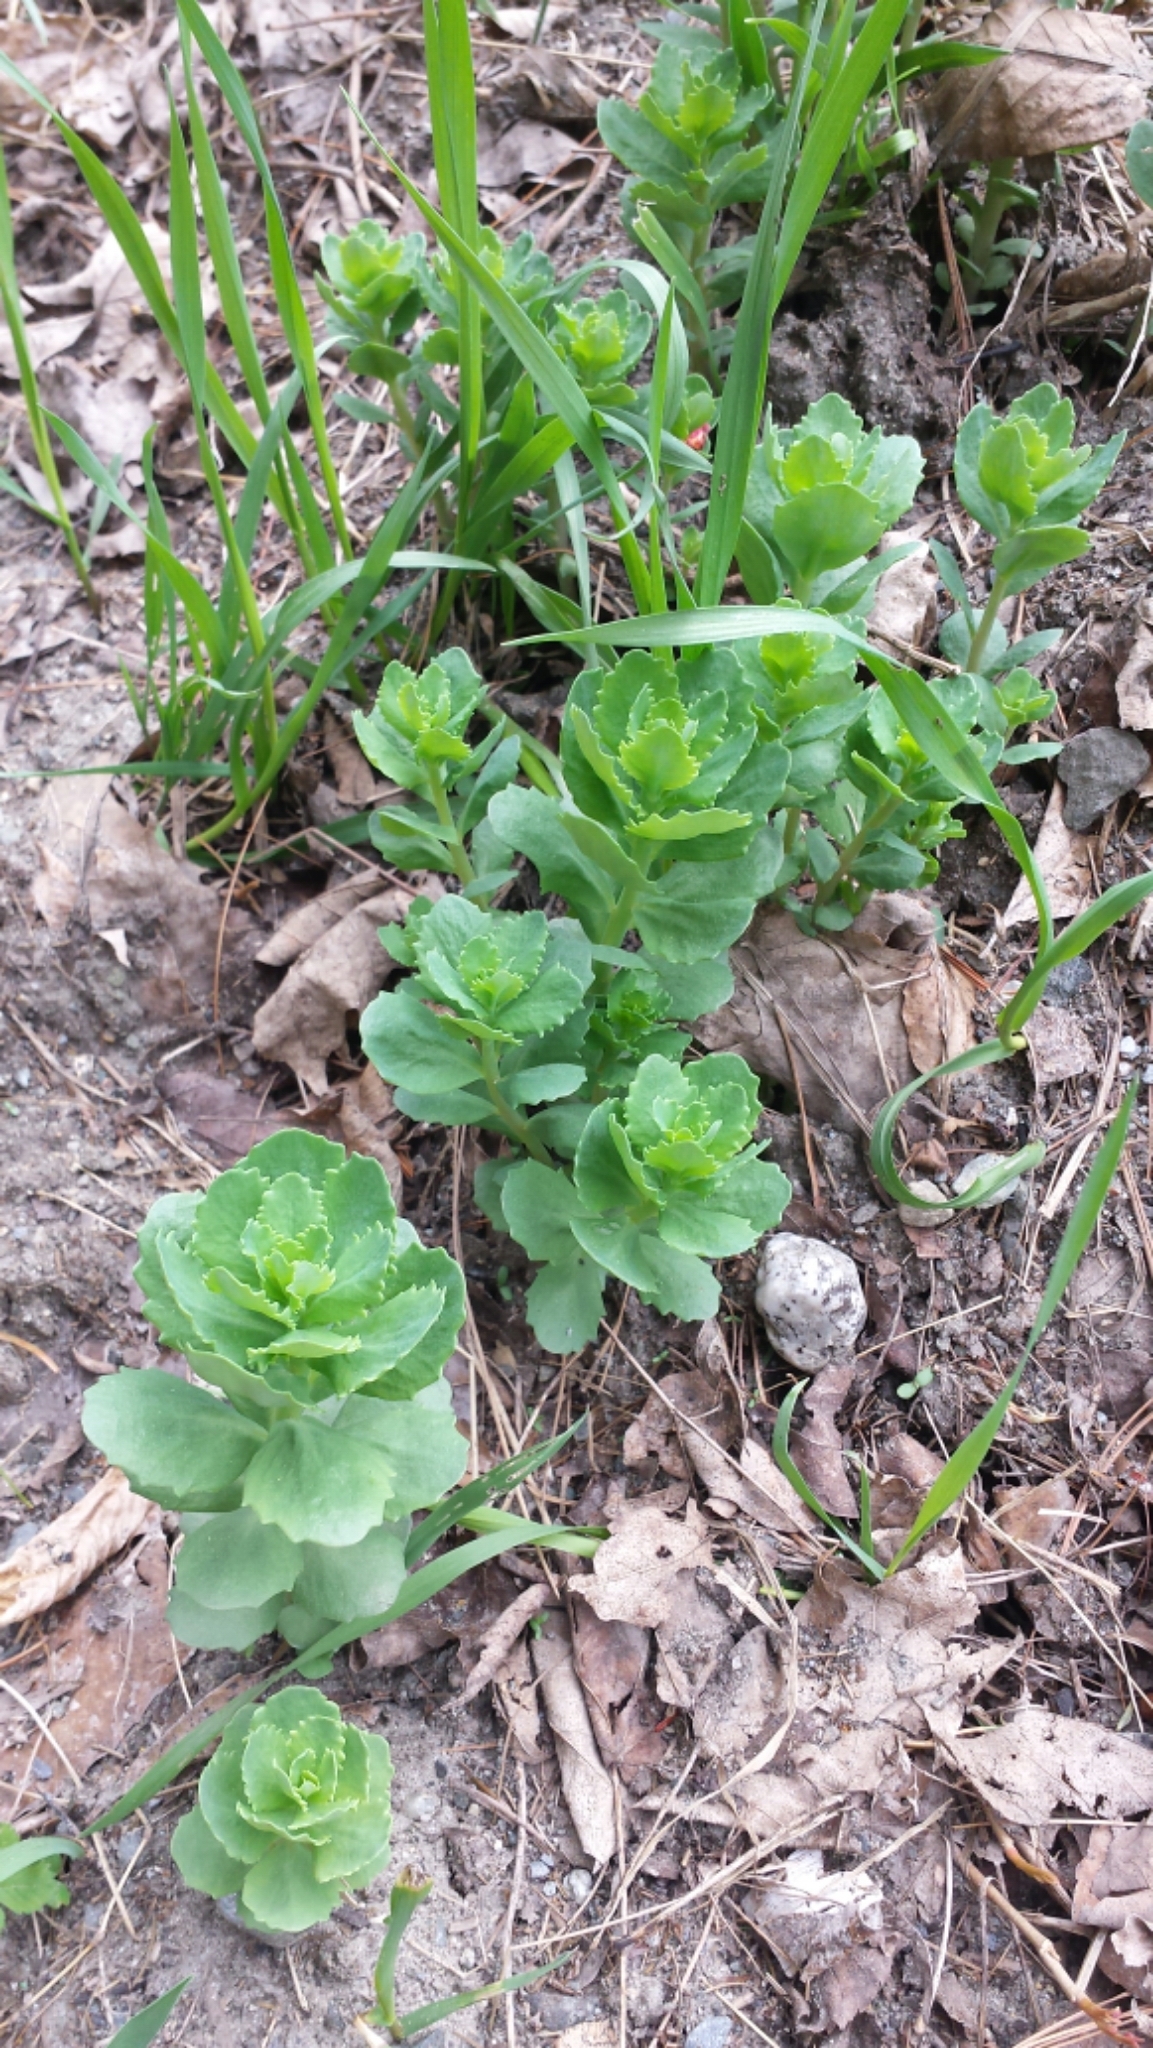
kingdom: Plantae
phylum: Tracheophyta
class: Magnoliopsida
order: Saxifragales
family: Crassulaceae
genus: Hylotelephium
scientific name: Hylotelephium telephium
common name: Live-forever
